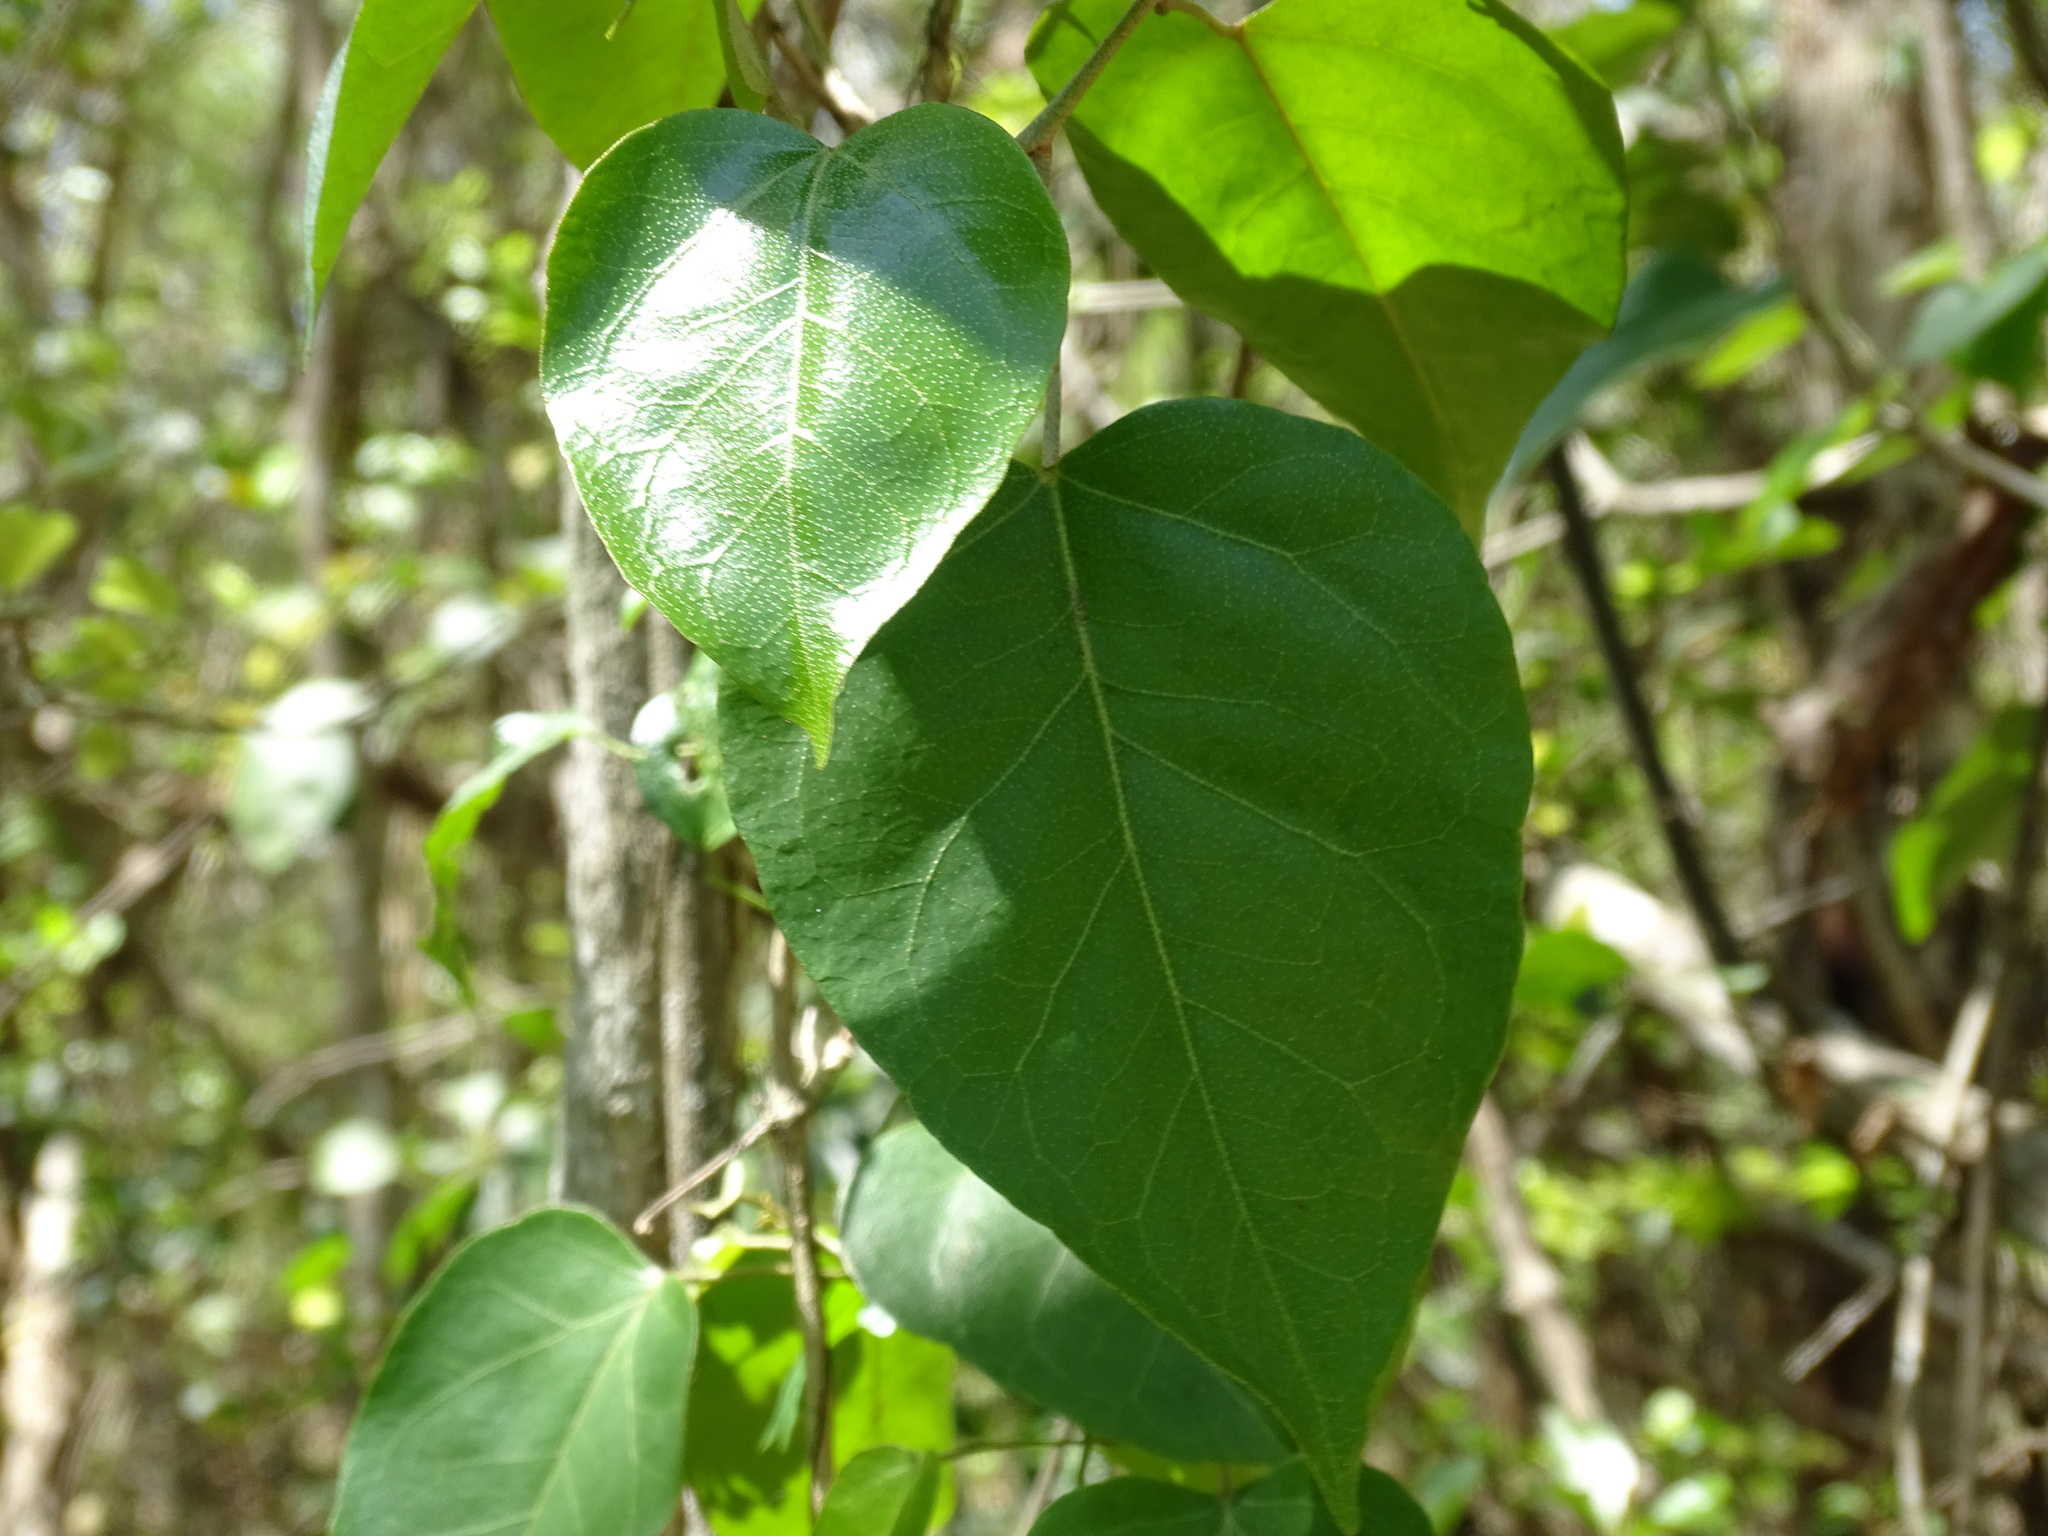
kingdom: Plantae
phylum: Tracheophyta
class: Magnoliopsida
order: Malpighiales
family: Euphorbiaceae
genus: Croton
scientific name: Croton arboreus
